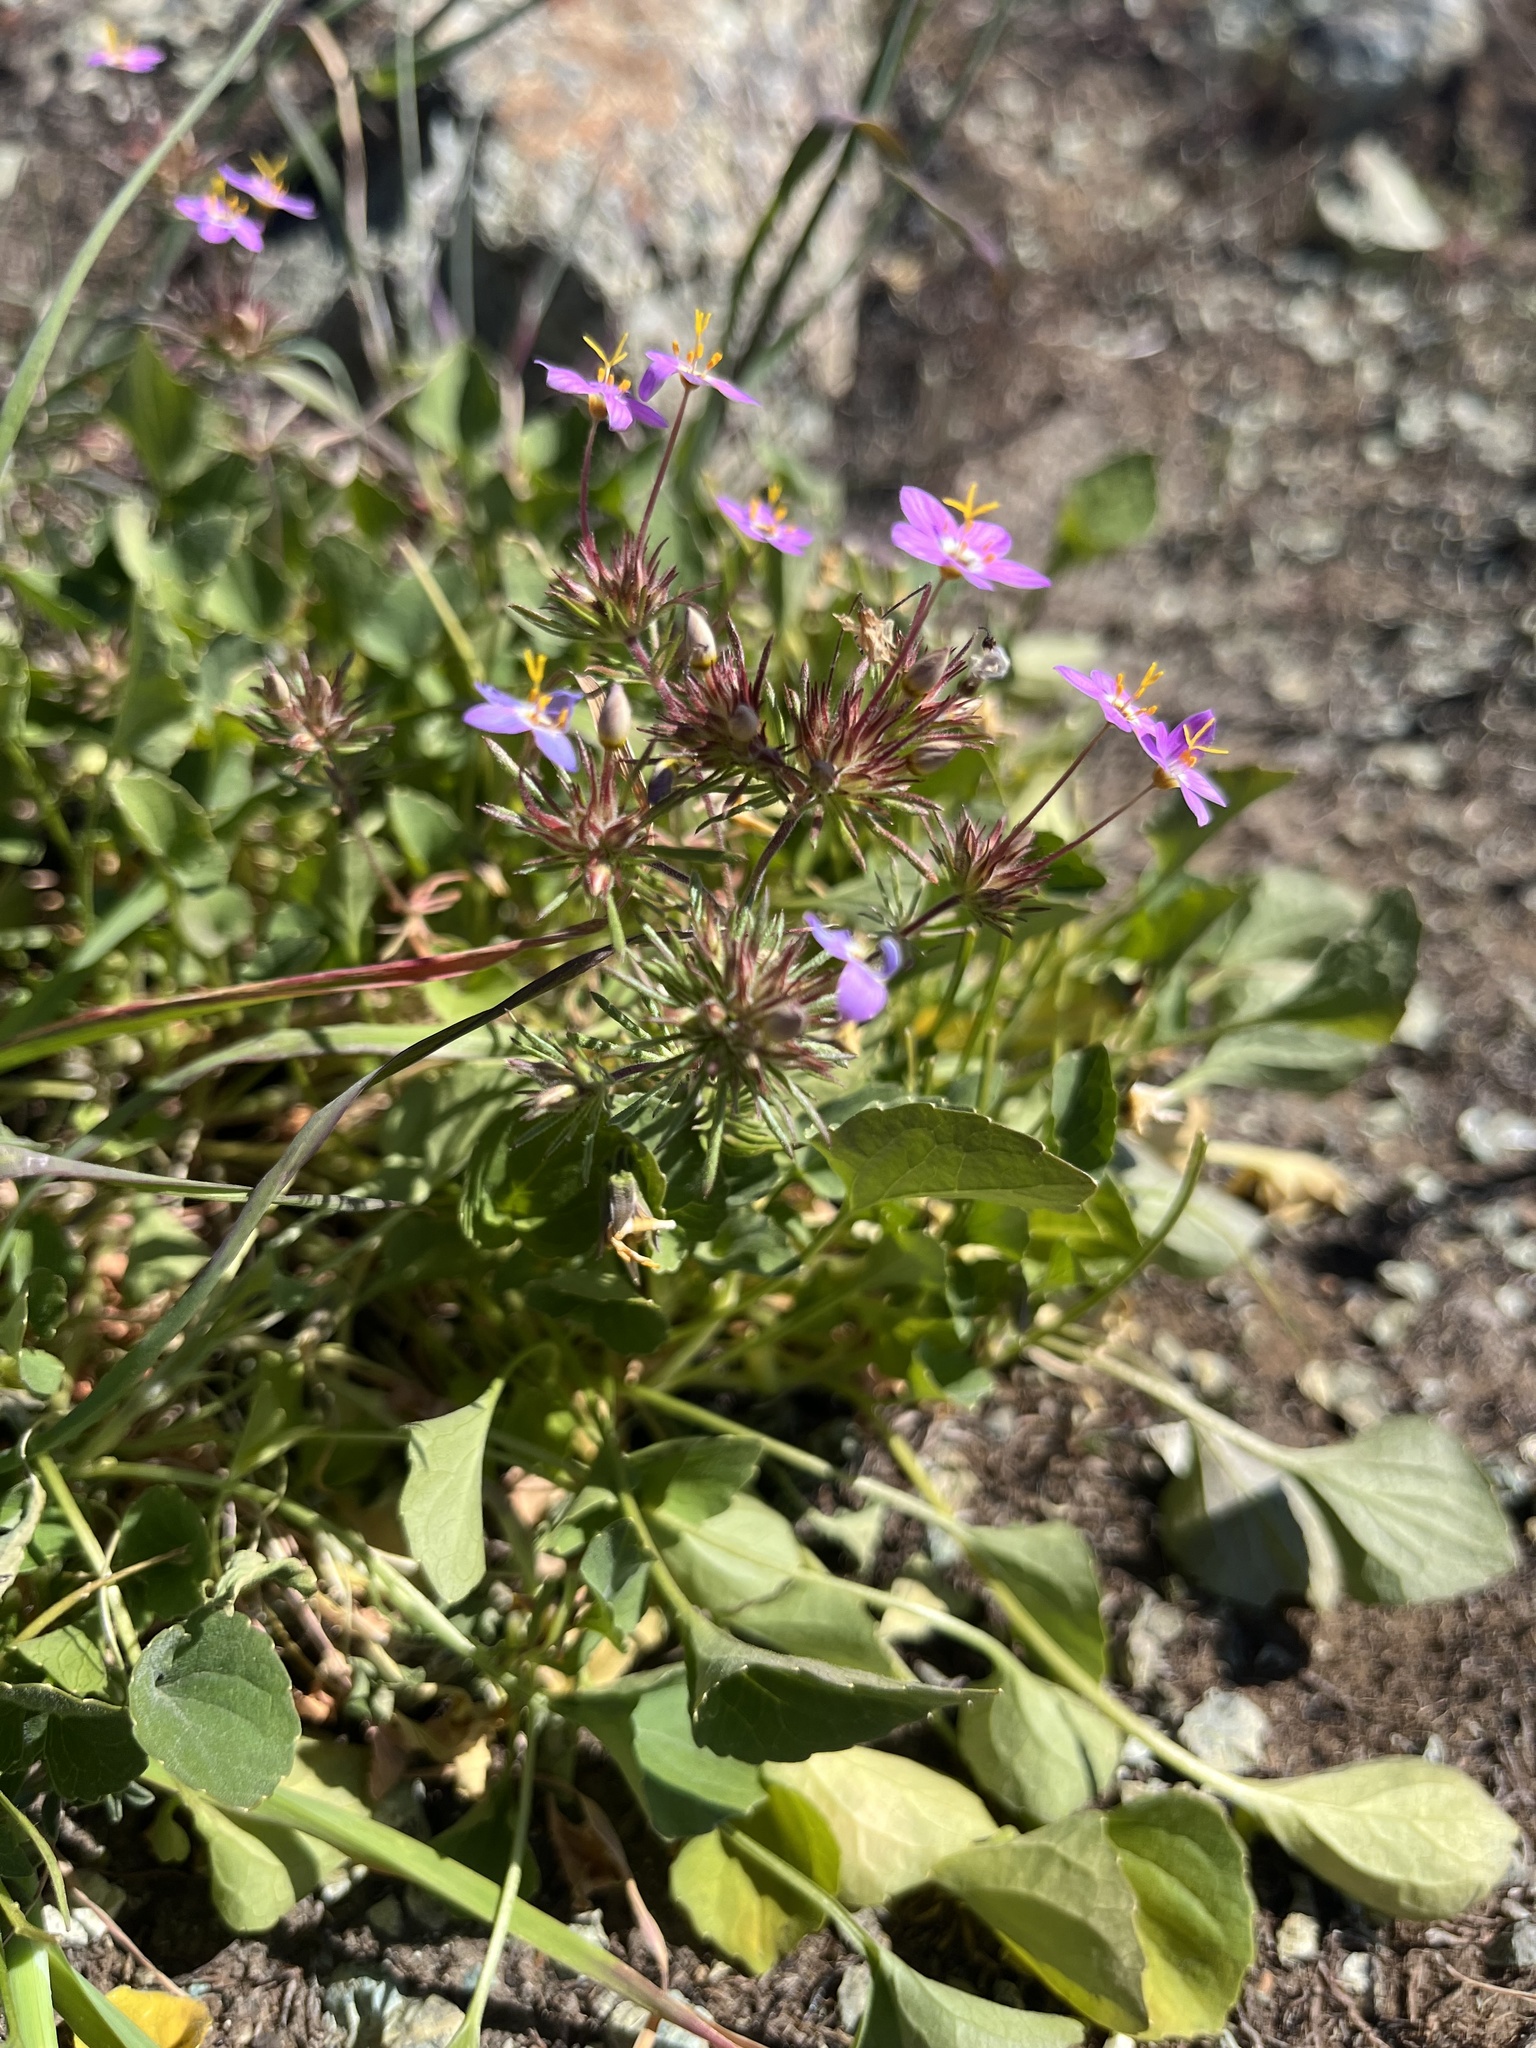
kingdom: Plantae
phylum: Tracheophyta
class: Magnoliopsida
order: Ericales
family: Polemoniaceae
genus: Leptosiphon
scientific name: Leptosiphon parviflorus
